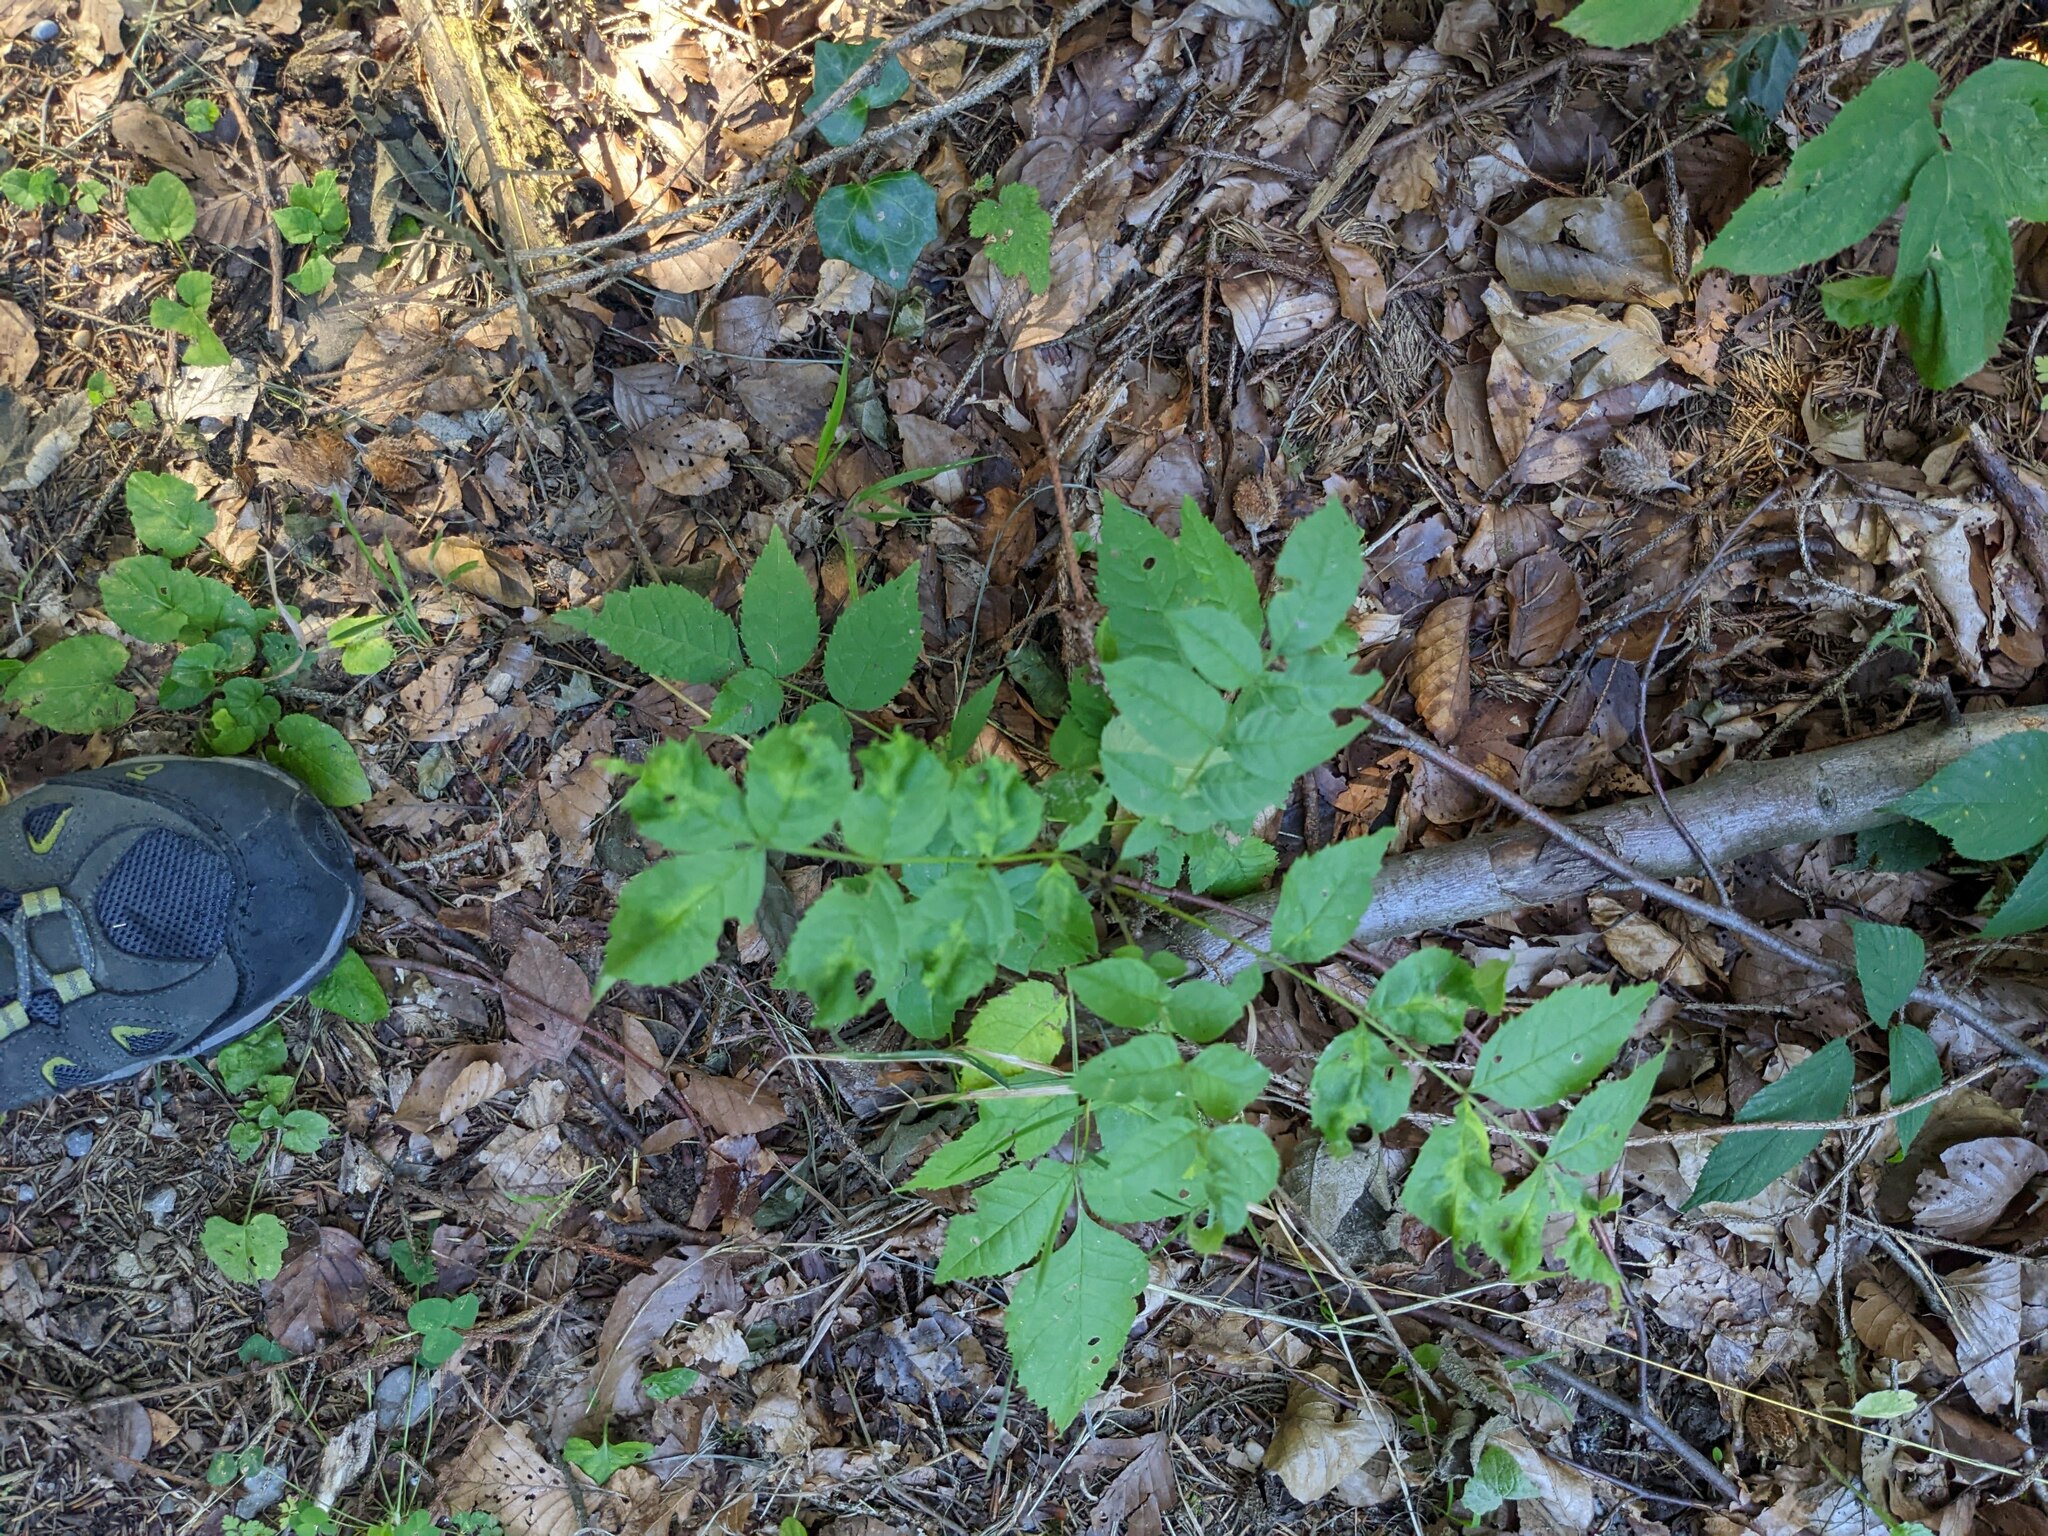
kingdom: Plantae
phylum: Tracheophyta
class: Magnoliopsida
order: Lamiales
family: Oleaceae
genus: Fraxinus
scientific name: Fraxinus excelsior
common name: European ash
